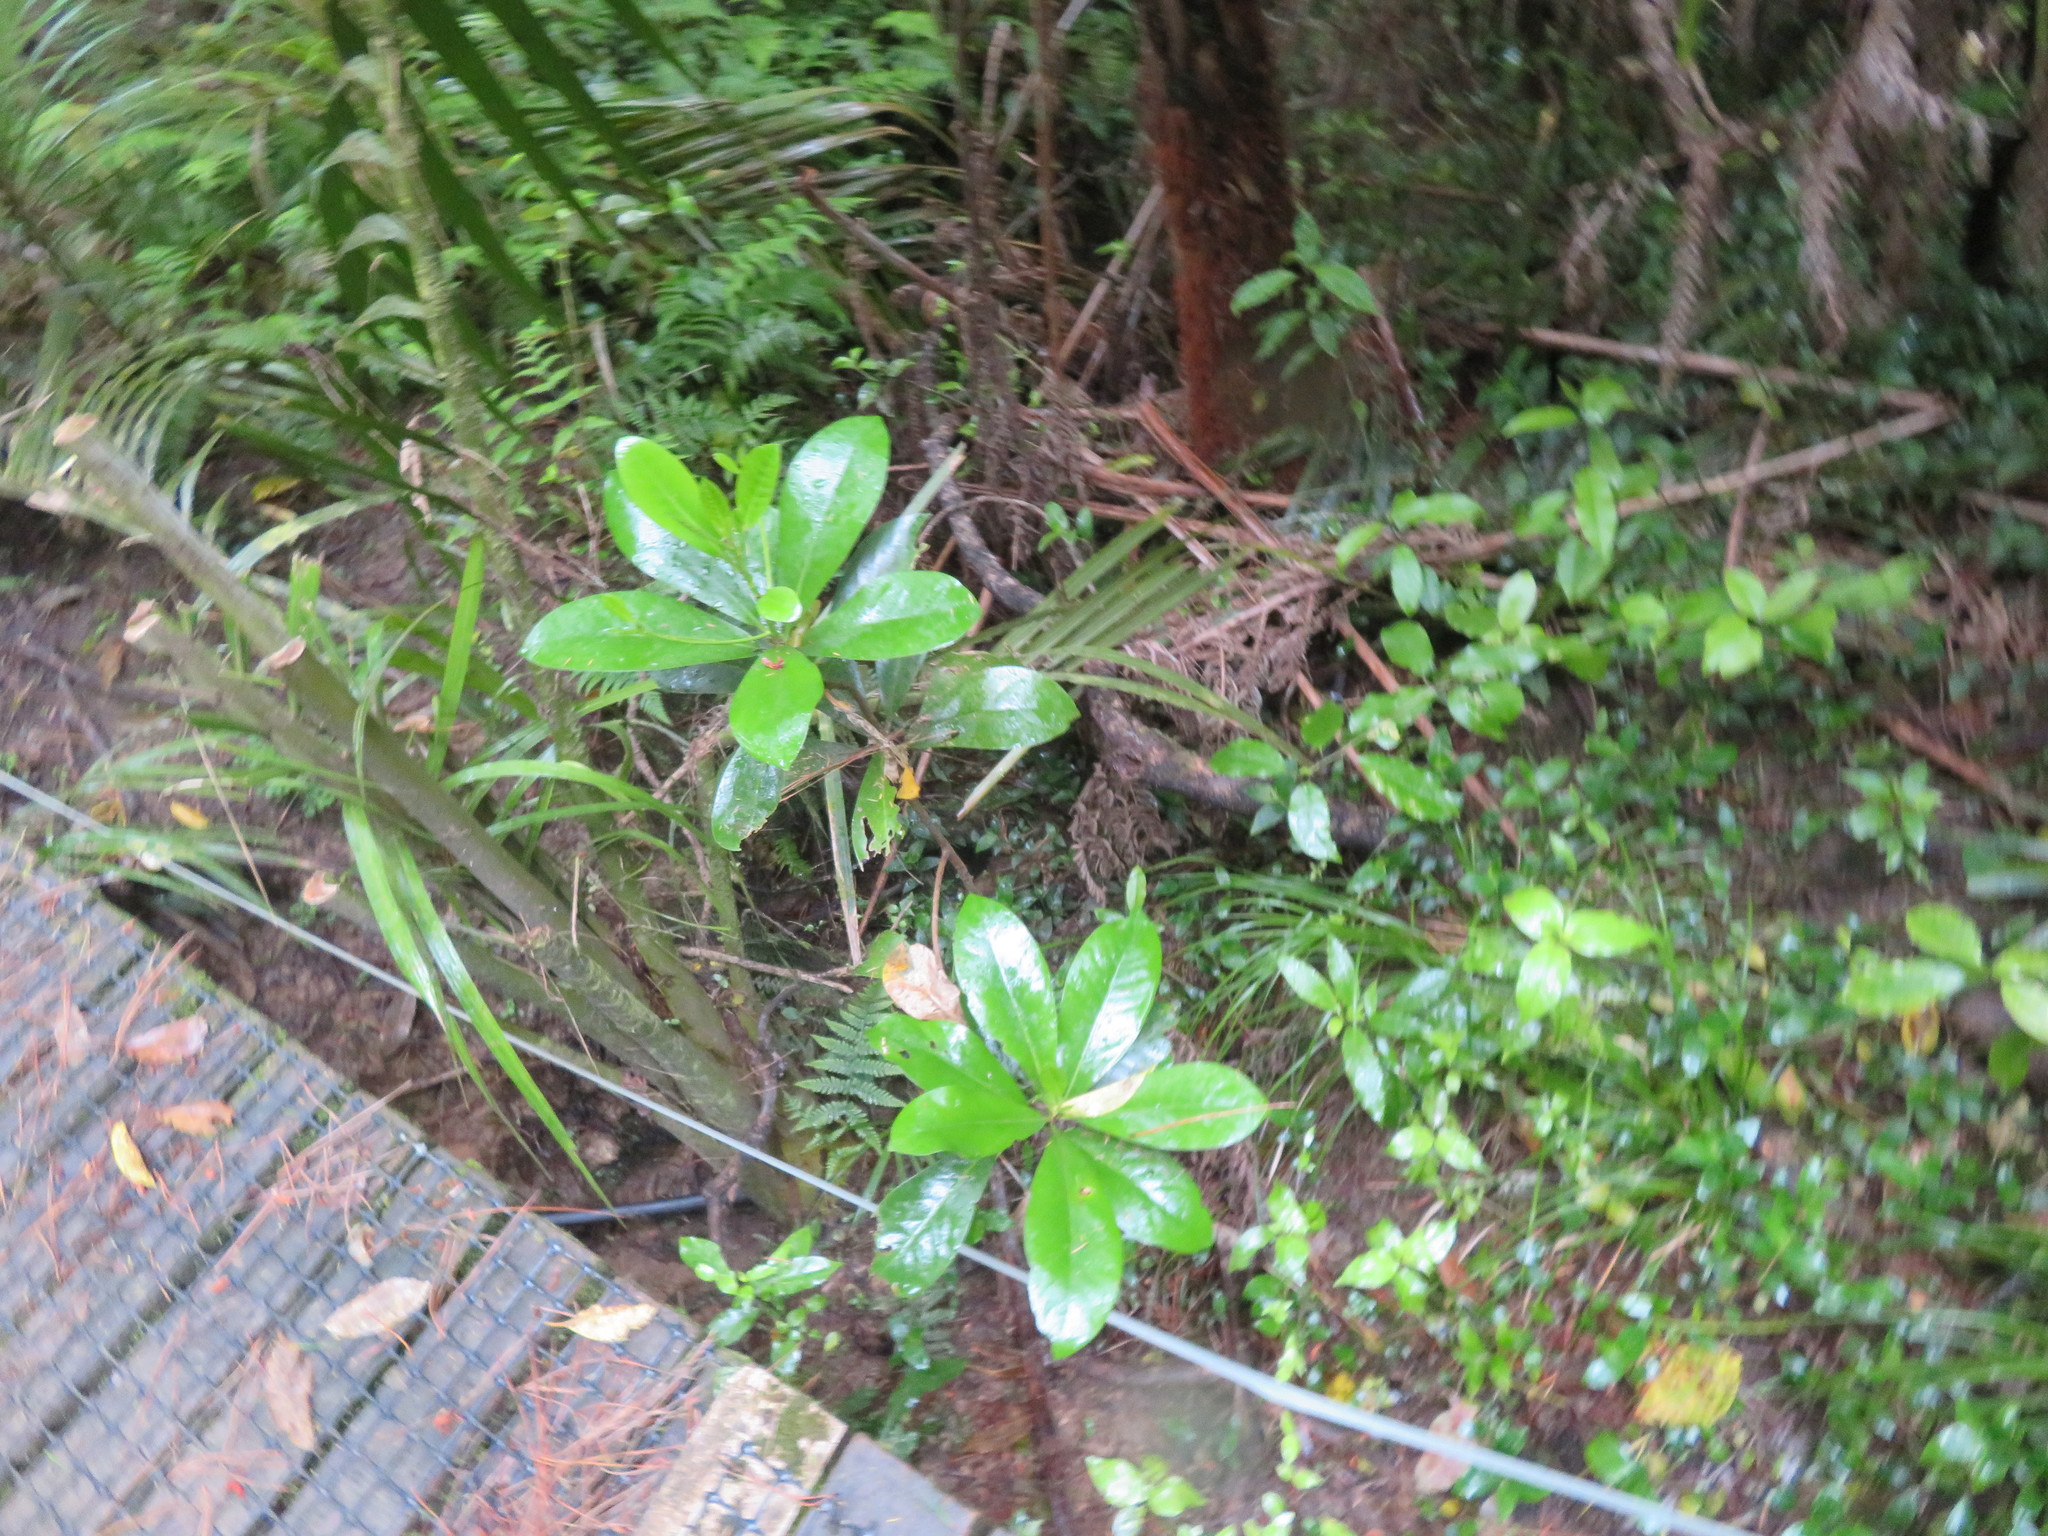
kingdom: Plantae
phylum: Tracheophyta
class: Magnoliopsida
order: Cucurbitales
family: Corynocarpaceae
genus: Corynocarpus
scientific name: Corynocarpus laevigatus
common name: New zealand laurel
